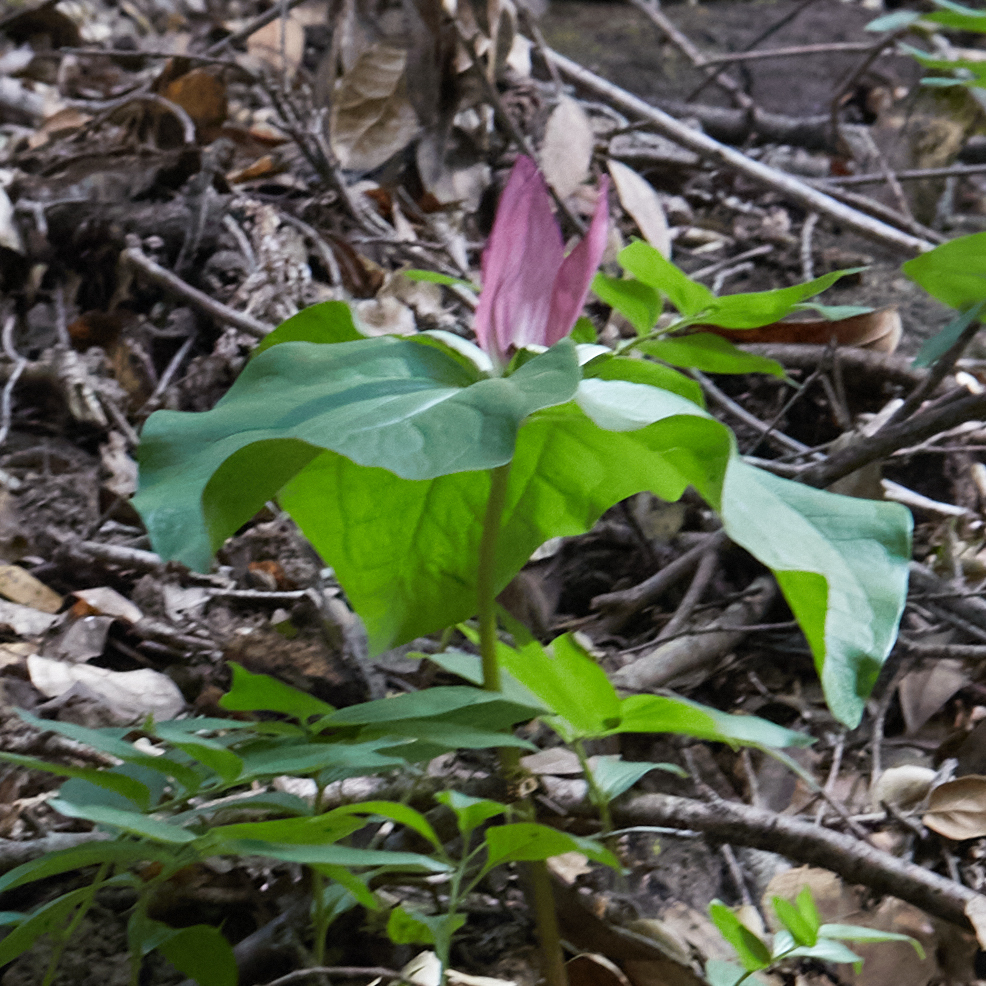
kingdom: Plantae
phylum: Tracheophyta
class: Liliopsida
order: Liliales
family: Melanthiaceae
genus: Trillium
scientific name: Trillium chloropetalum
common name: Giant trillium
